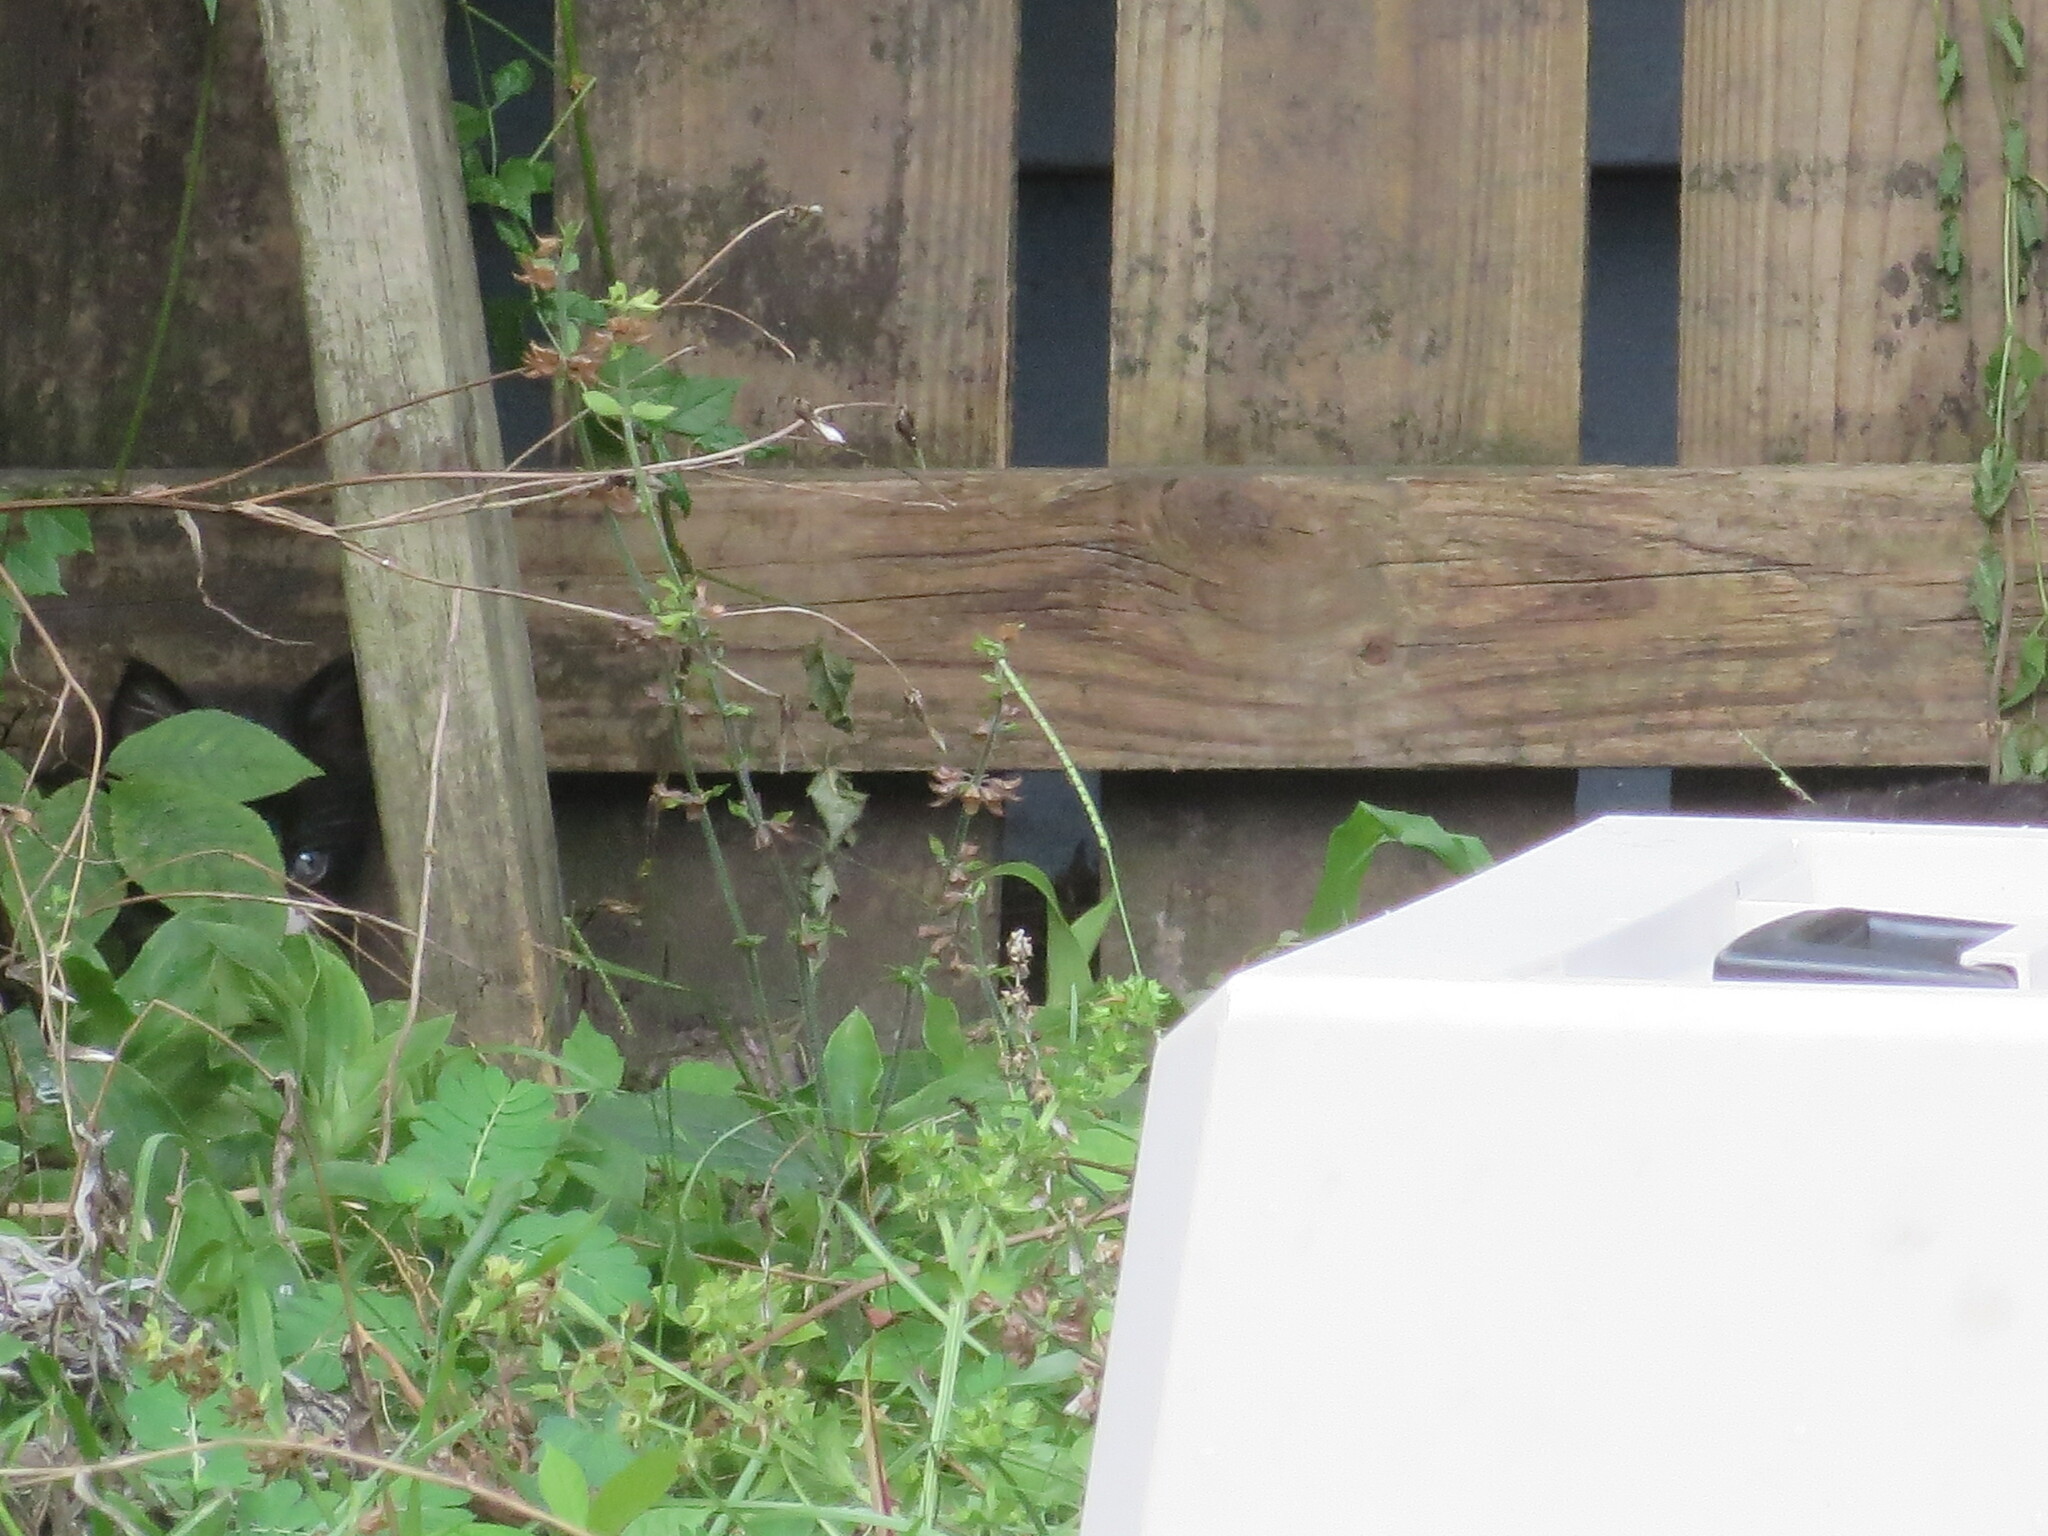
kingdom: Animalia
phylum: Chordata
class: Mammalia
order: Carnivora
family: Felidae
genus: Felis
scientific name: Felis catus
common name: Domestic cat
